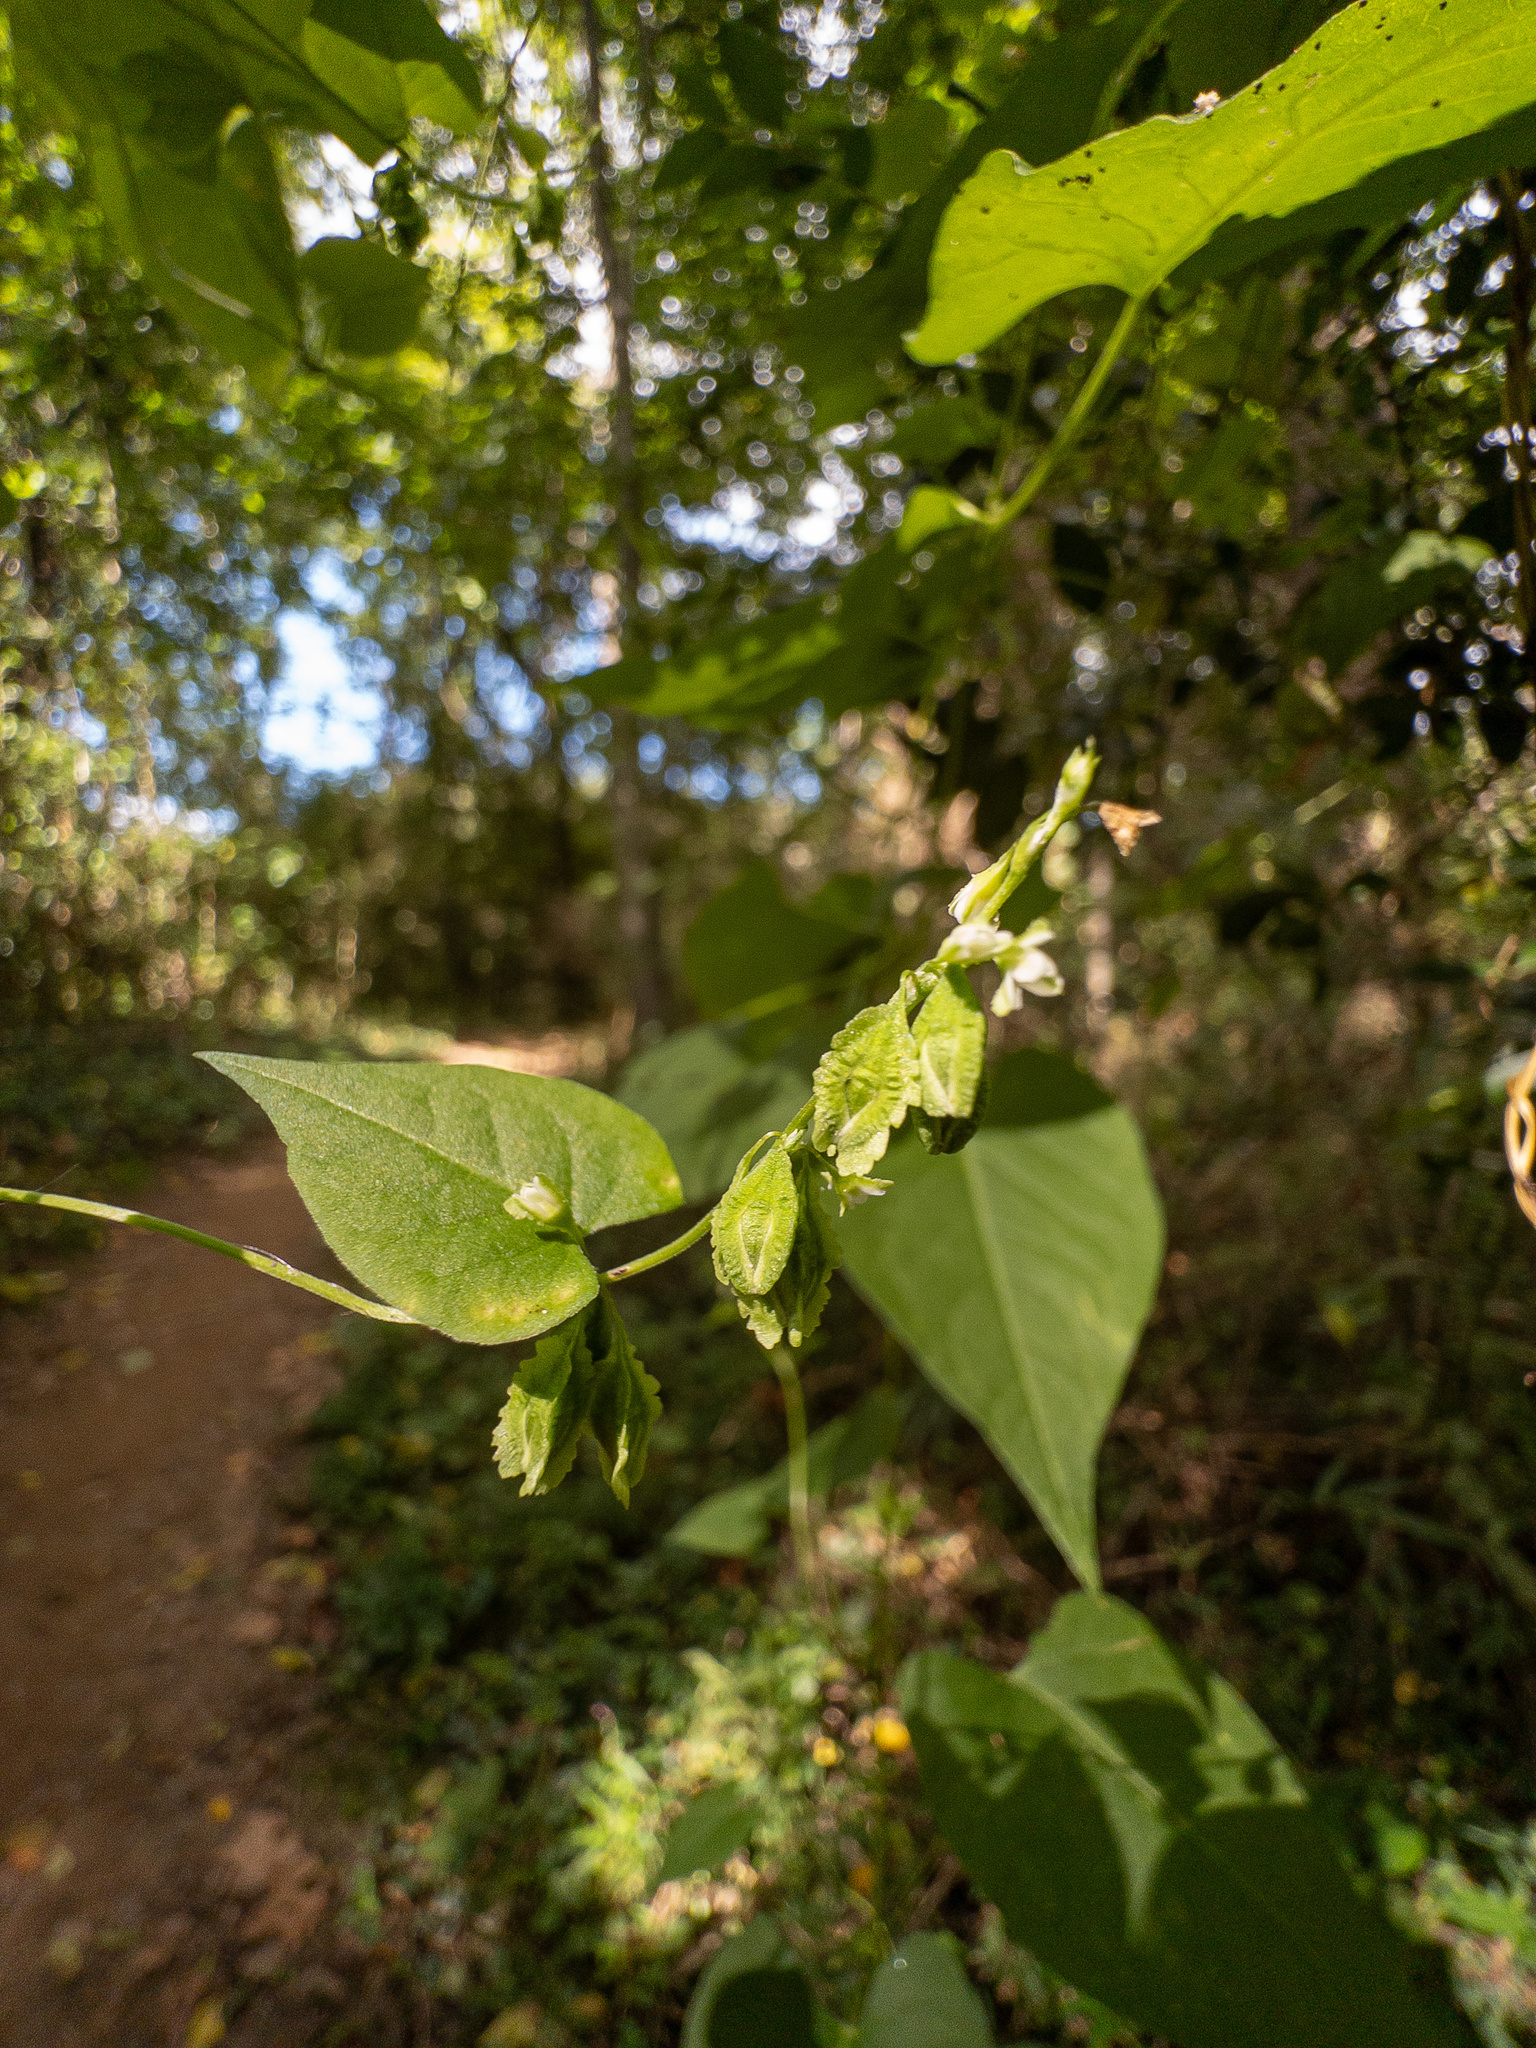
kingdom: Plantae
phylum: Tracheophyta
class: Magnoliopsida
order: Caryophyllales
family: Polygonaceae
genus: Fallopia
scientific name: Fallopia scandens
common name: Climbing false buckwheat
